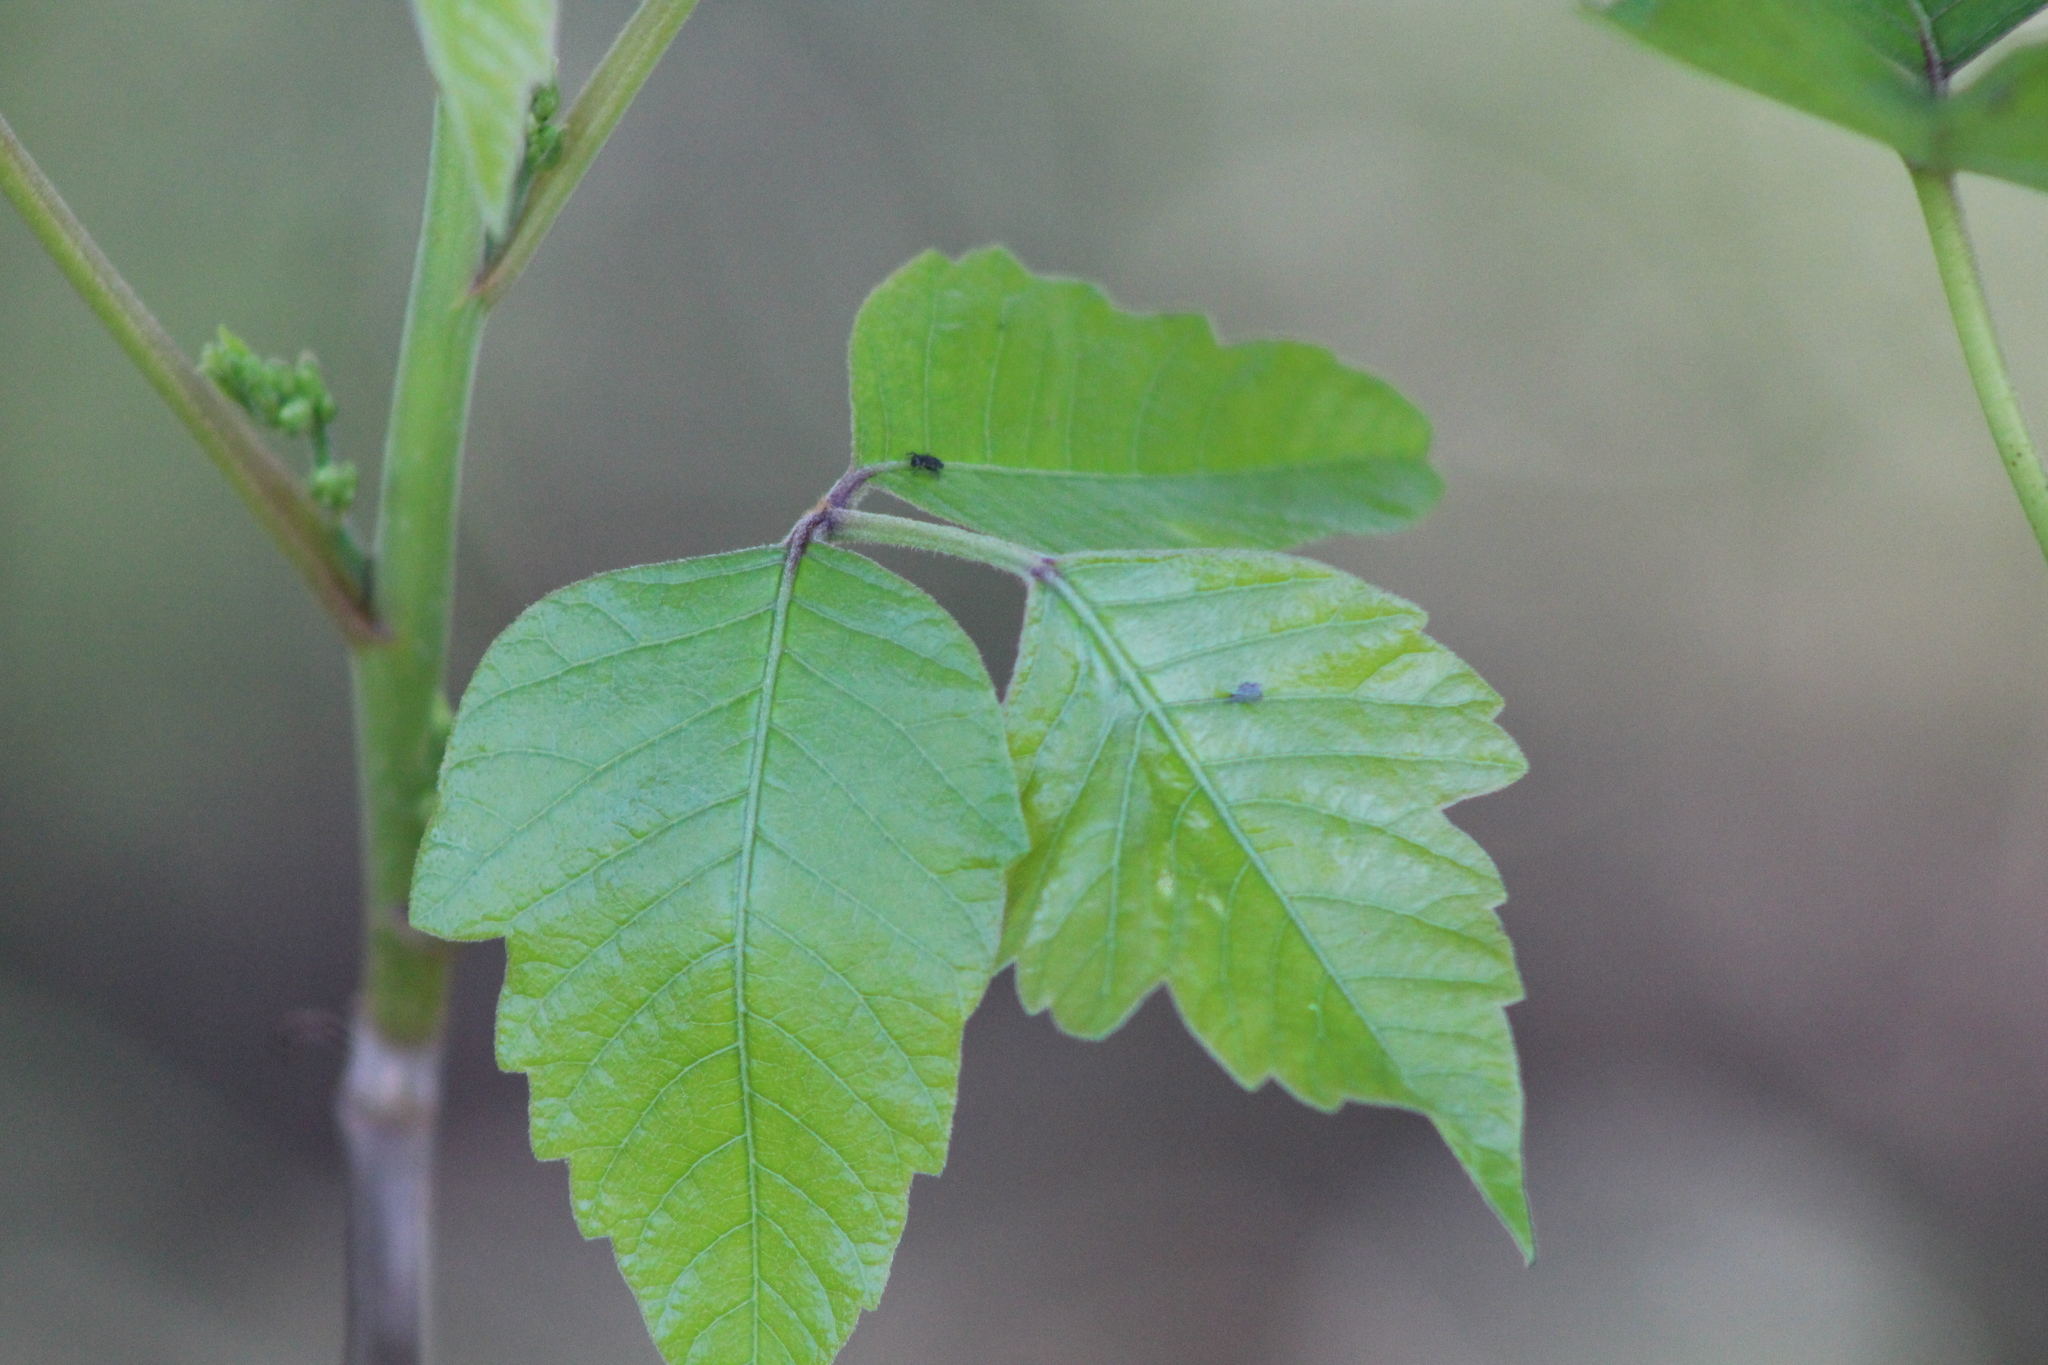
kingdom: Plantae
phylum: Tracheophyta
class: Magnoliopsida
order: Sapindales
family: Anacardiaceae
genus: Toxicodendron
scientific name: Toxicodendron radicans
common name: Poison ivy
